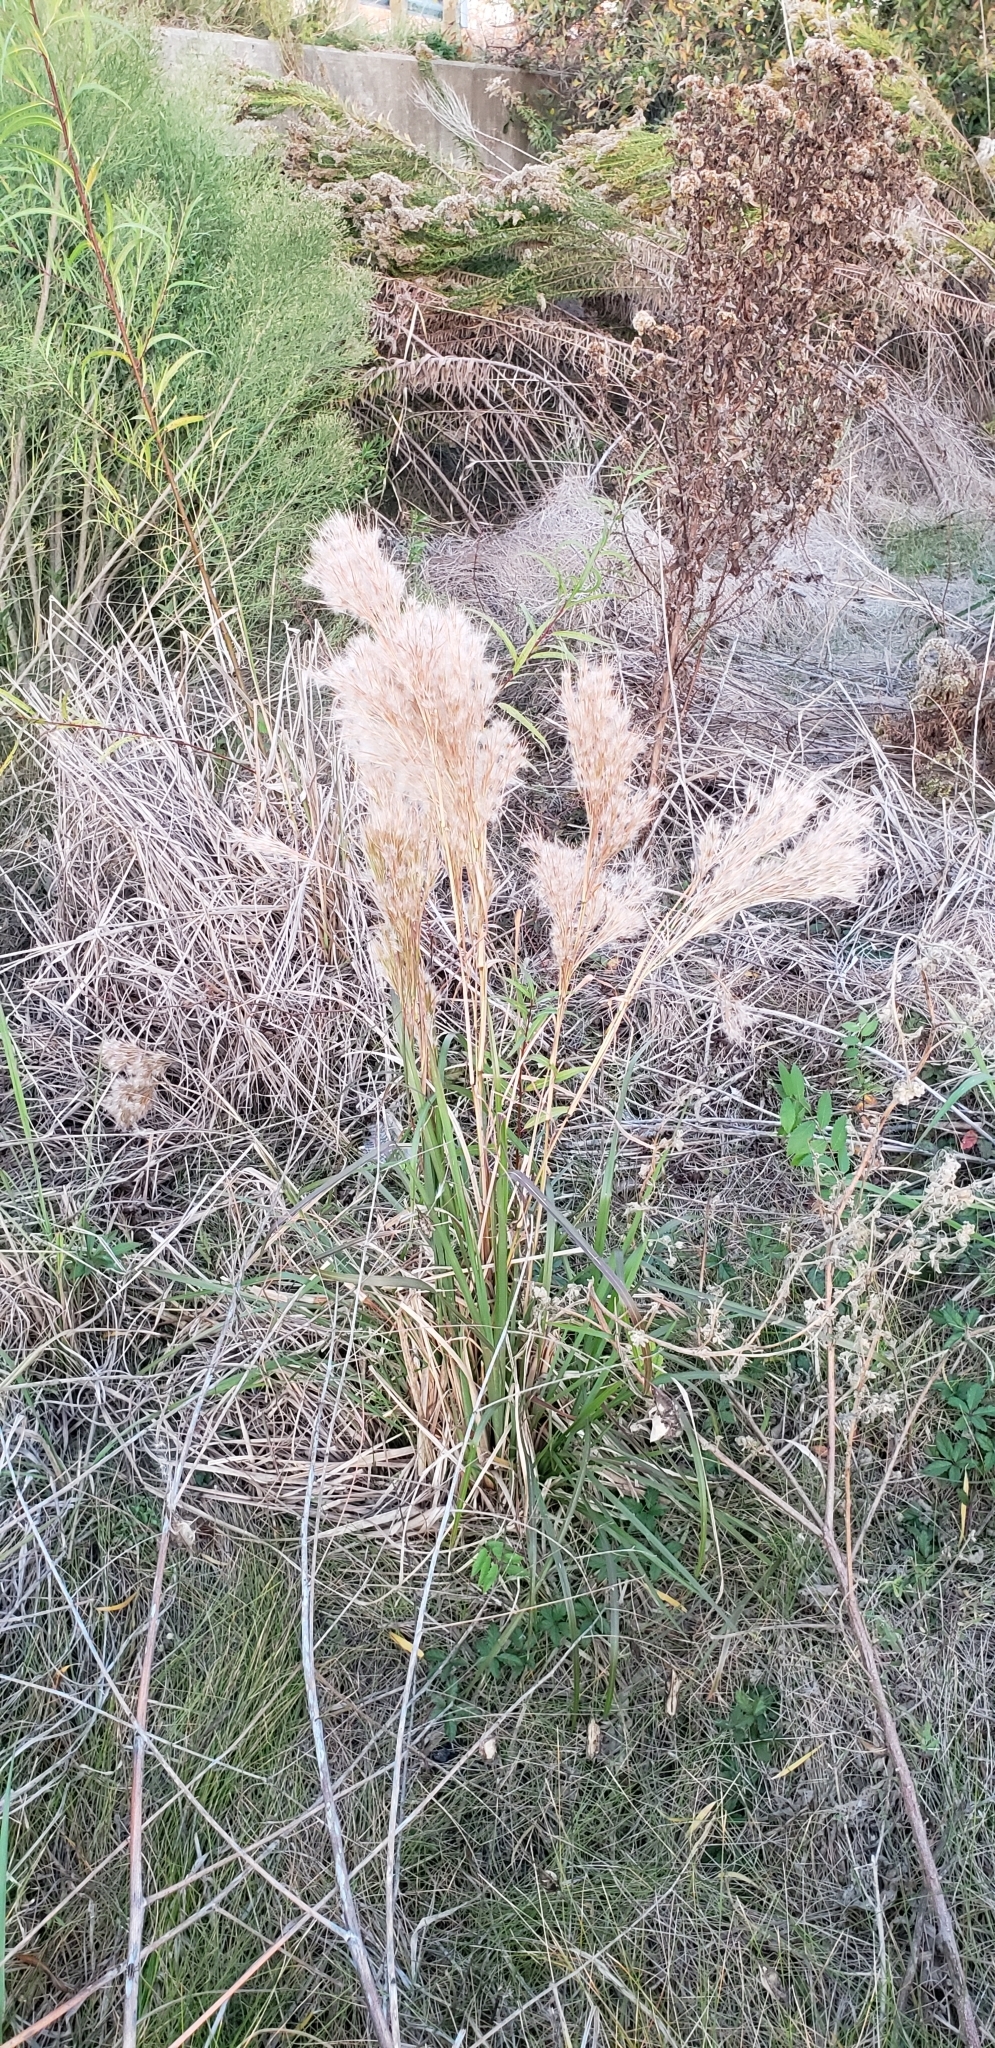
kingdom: Plantae
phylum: Tracheophyta
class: Liliopsida
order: Poales
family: Poaceae
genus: Andropogon
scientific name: Andropogon tenuispatheus
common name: Bushy bluestem
